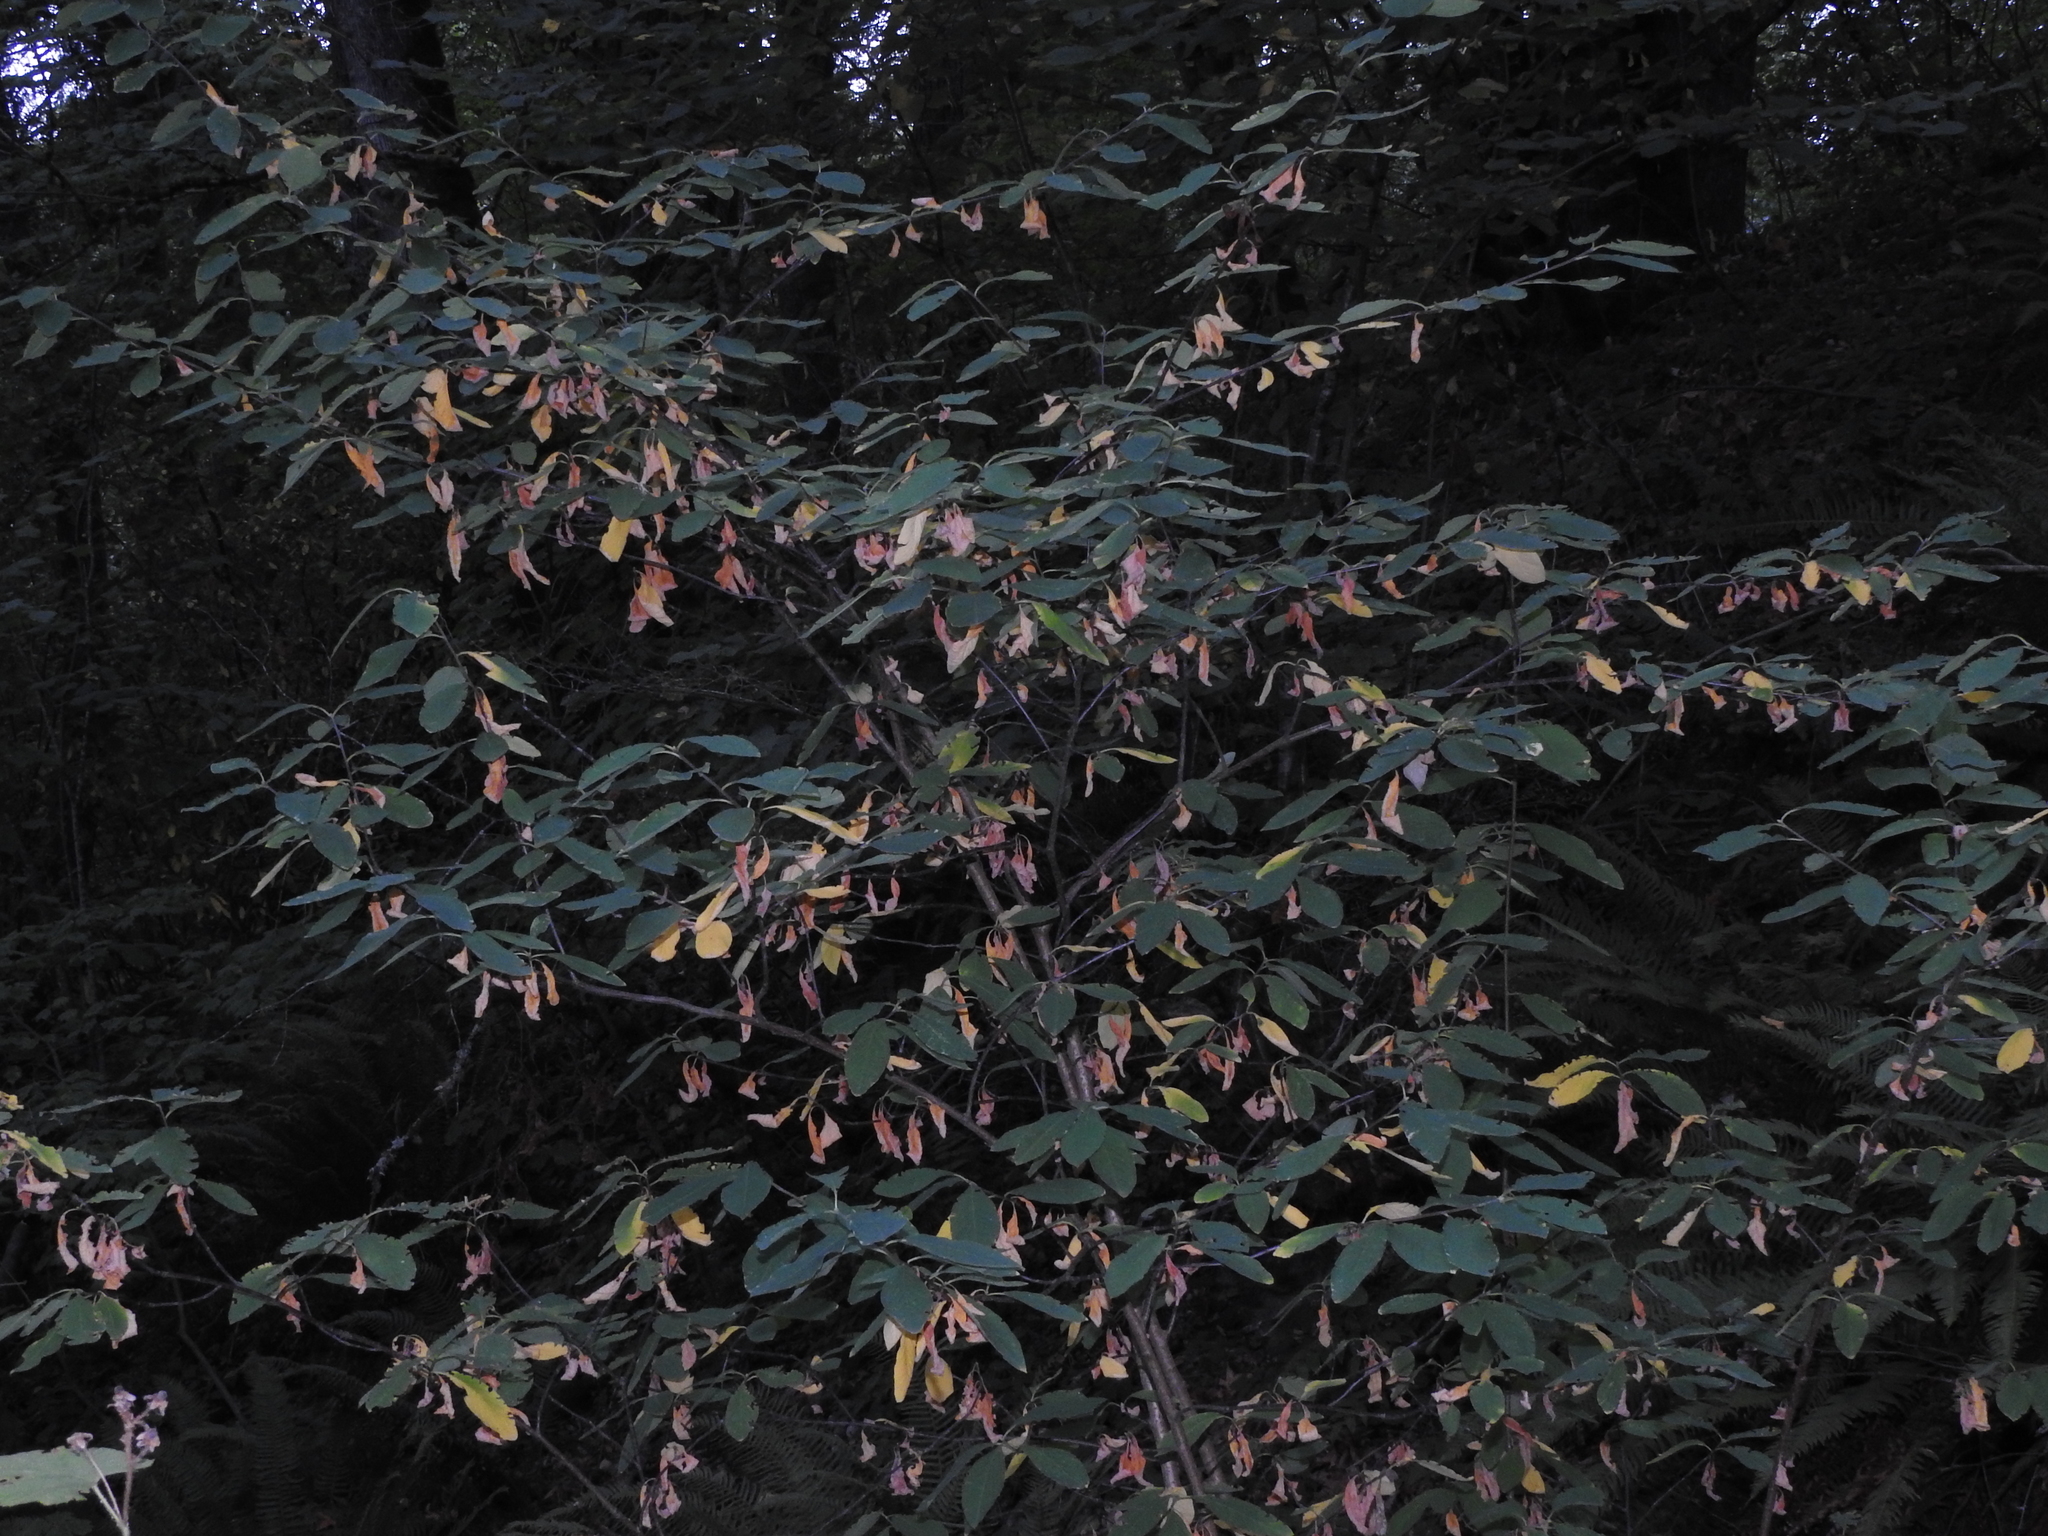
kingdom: Plantae
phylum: Tracheophyta
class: Magnoliopsida
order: Rosales
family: Rosaceae
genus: Oemleria
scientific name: Oemleria cerasiformis
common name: Osoberry
